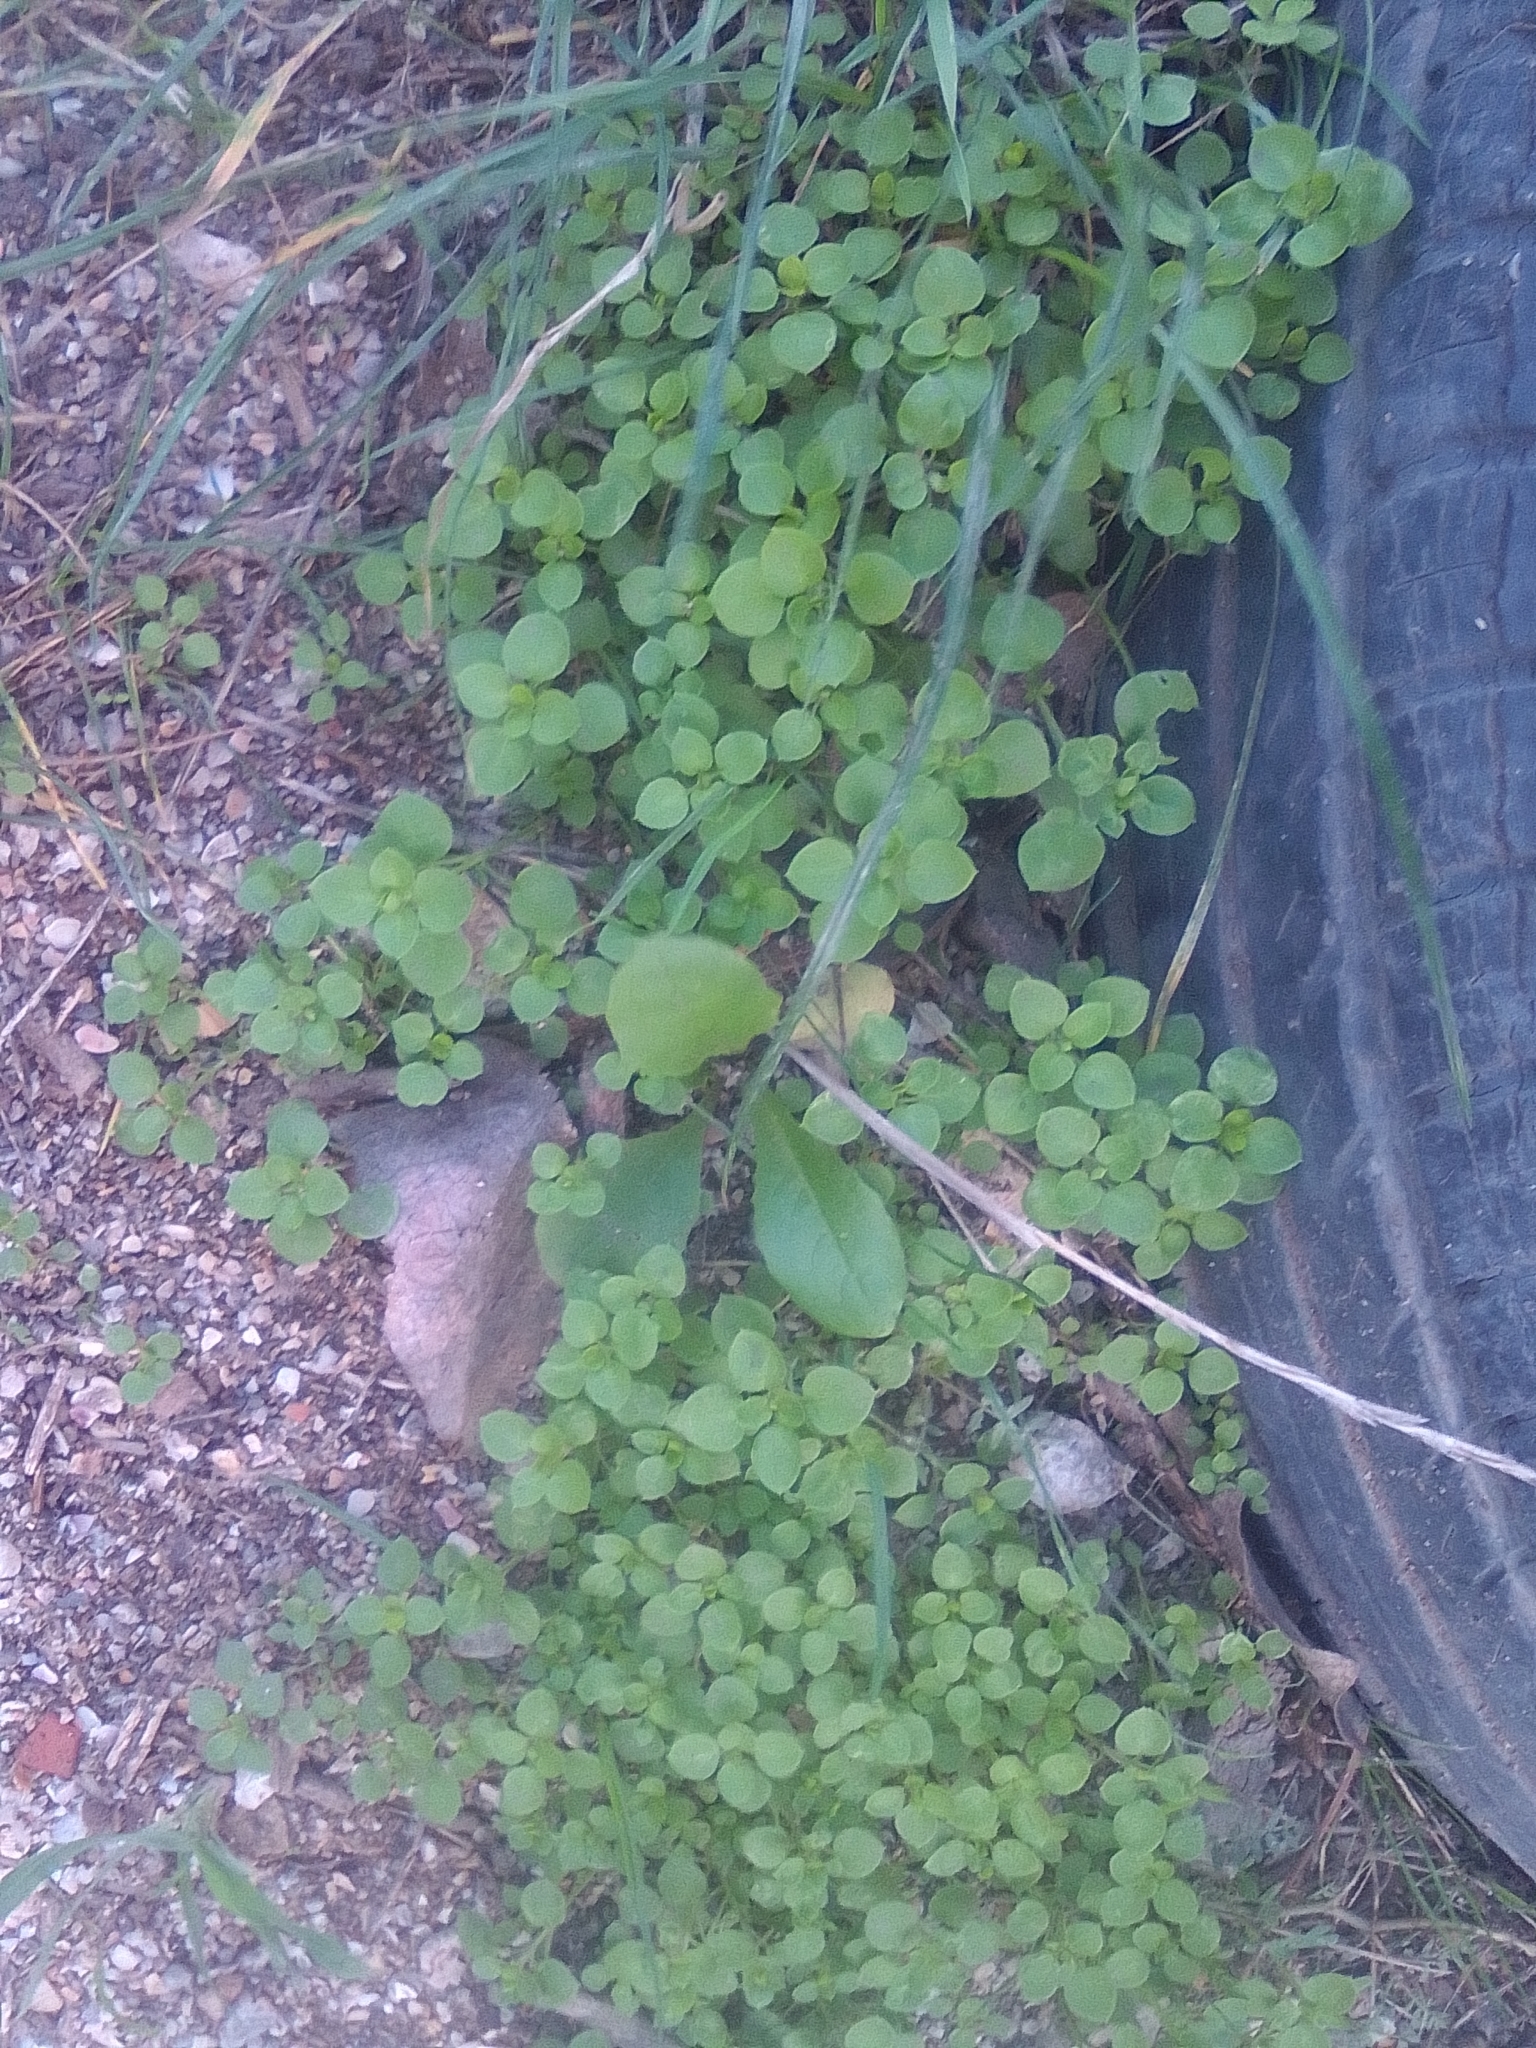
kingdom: Plantae
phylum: Tracheophyta
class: Magnoliopsida
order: Caryophyllales
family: Caryophyllaceae
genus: Stellaria
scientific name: Stellaria media
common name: Common chickweed
